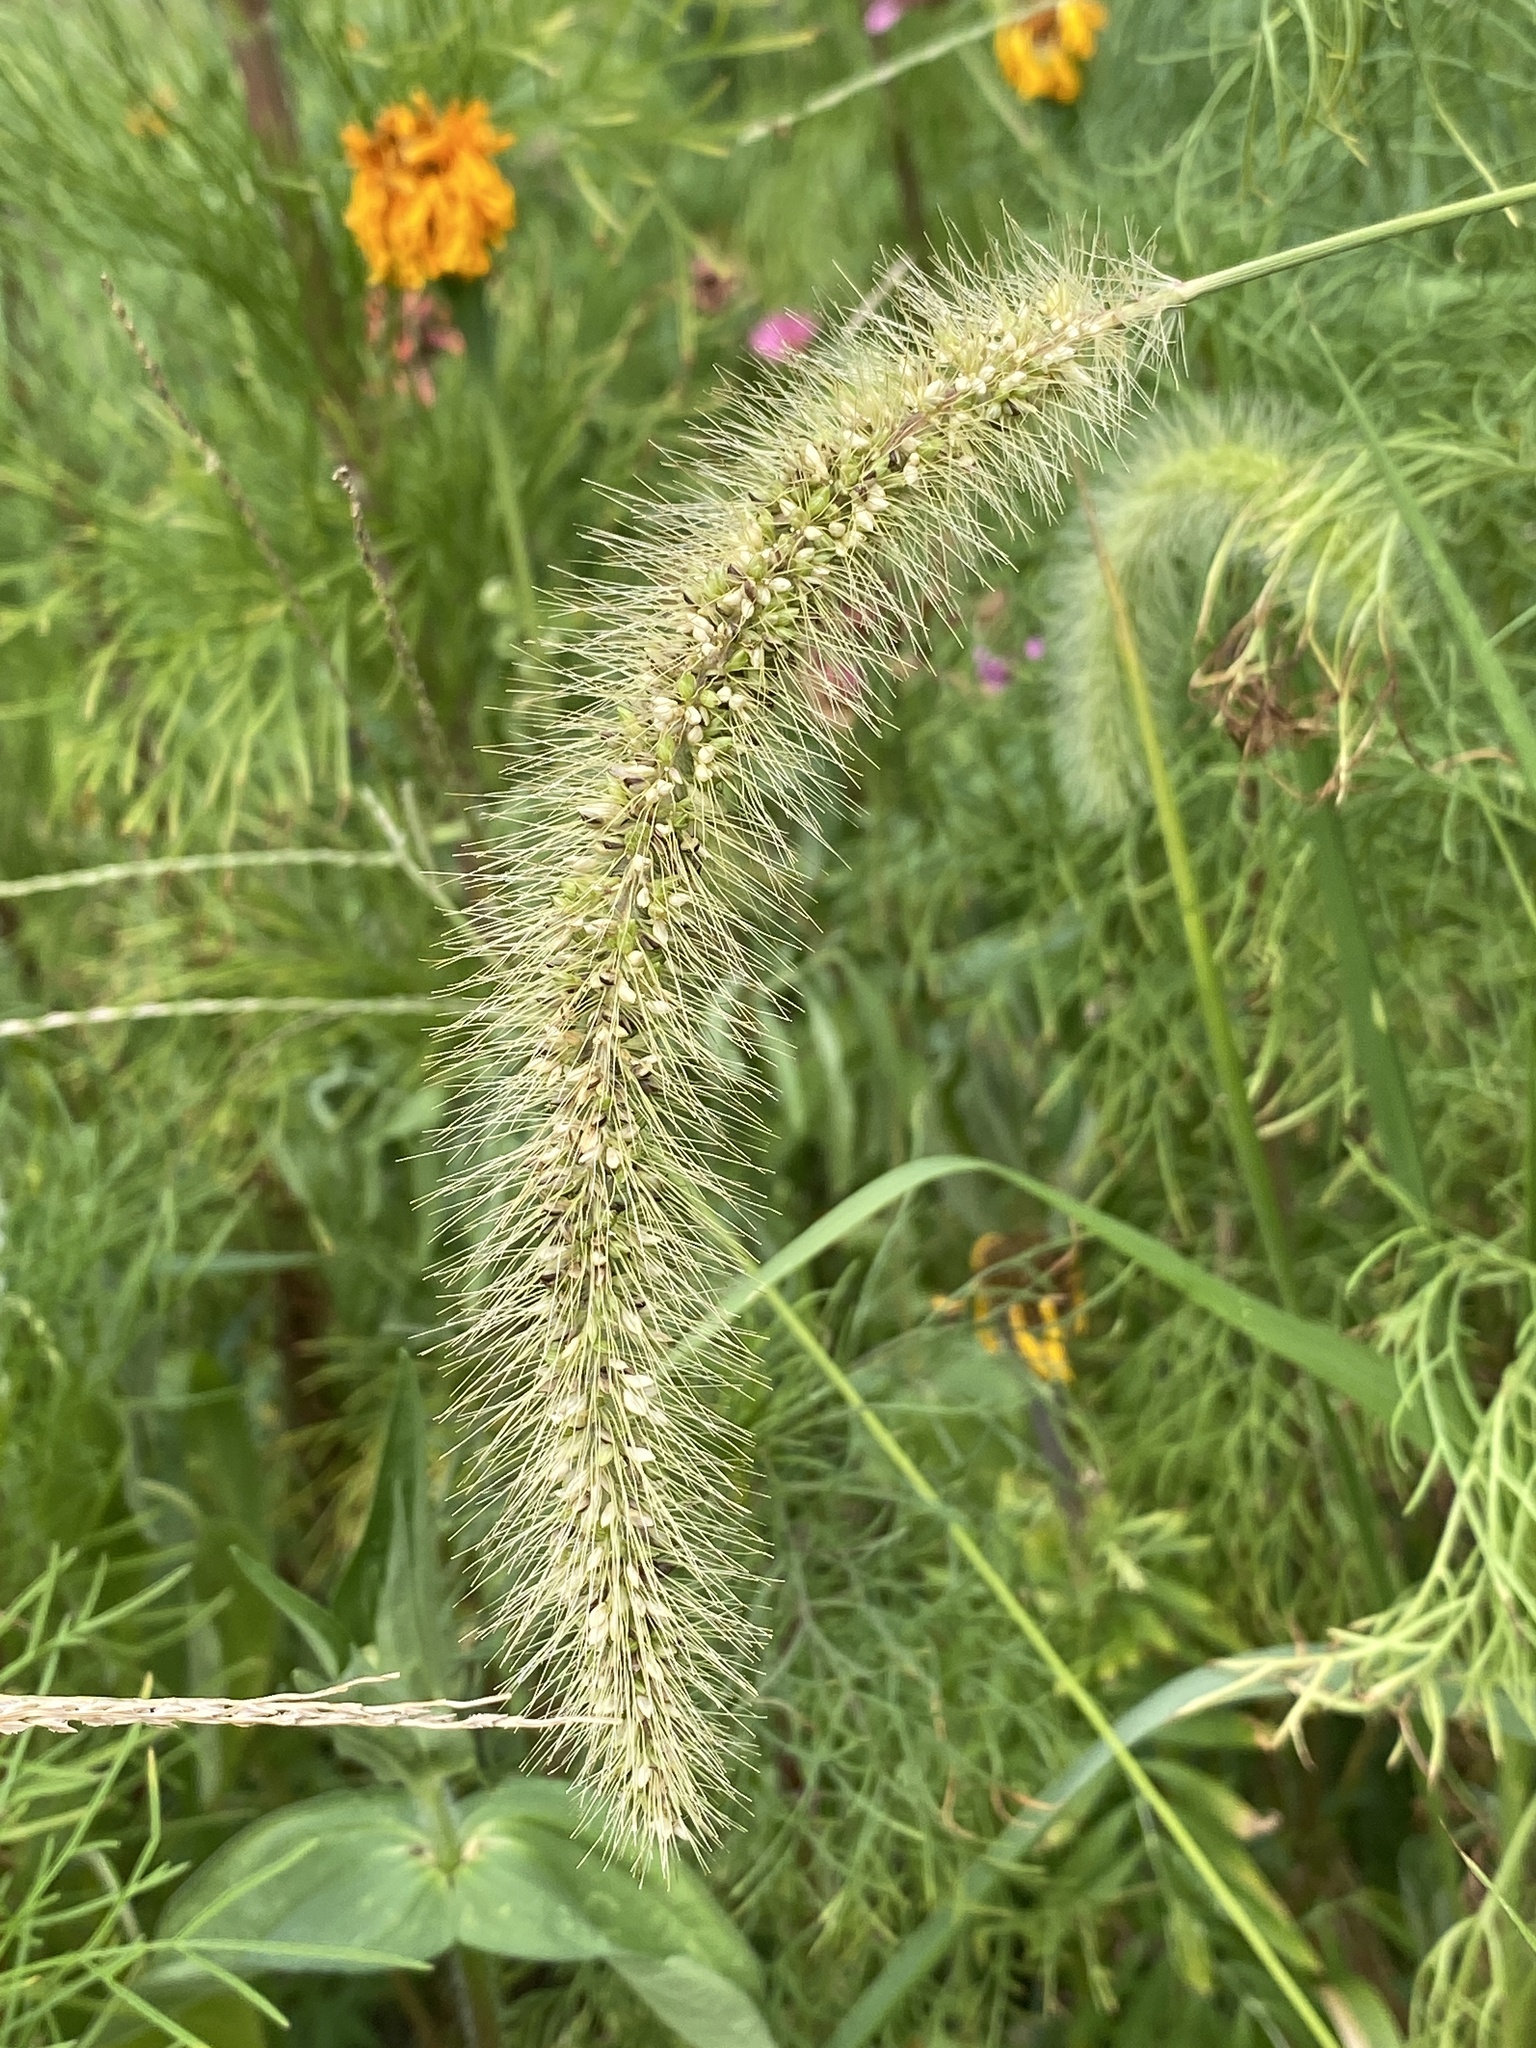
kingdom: Plantae
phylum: Tracheophyta
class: Liliopsida
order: Poales
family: Poaceae
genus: Setaria
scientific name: Setaria faberi
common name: Nodding bristle-grass
